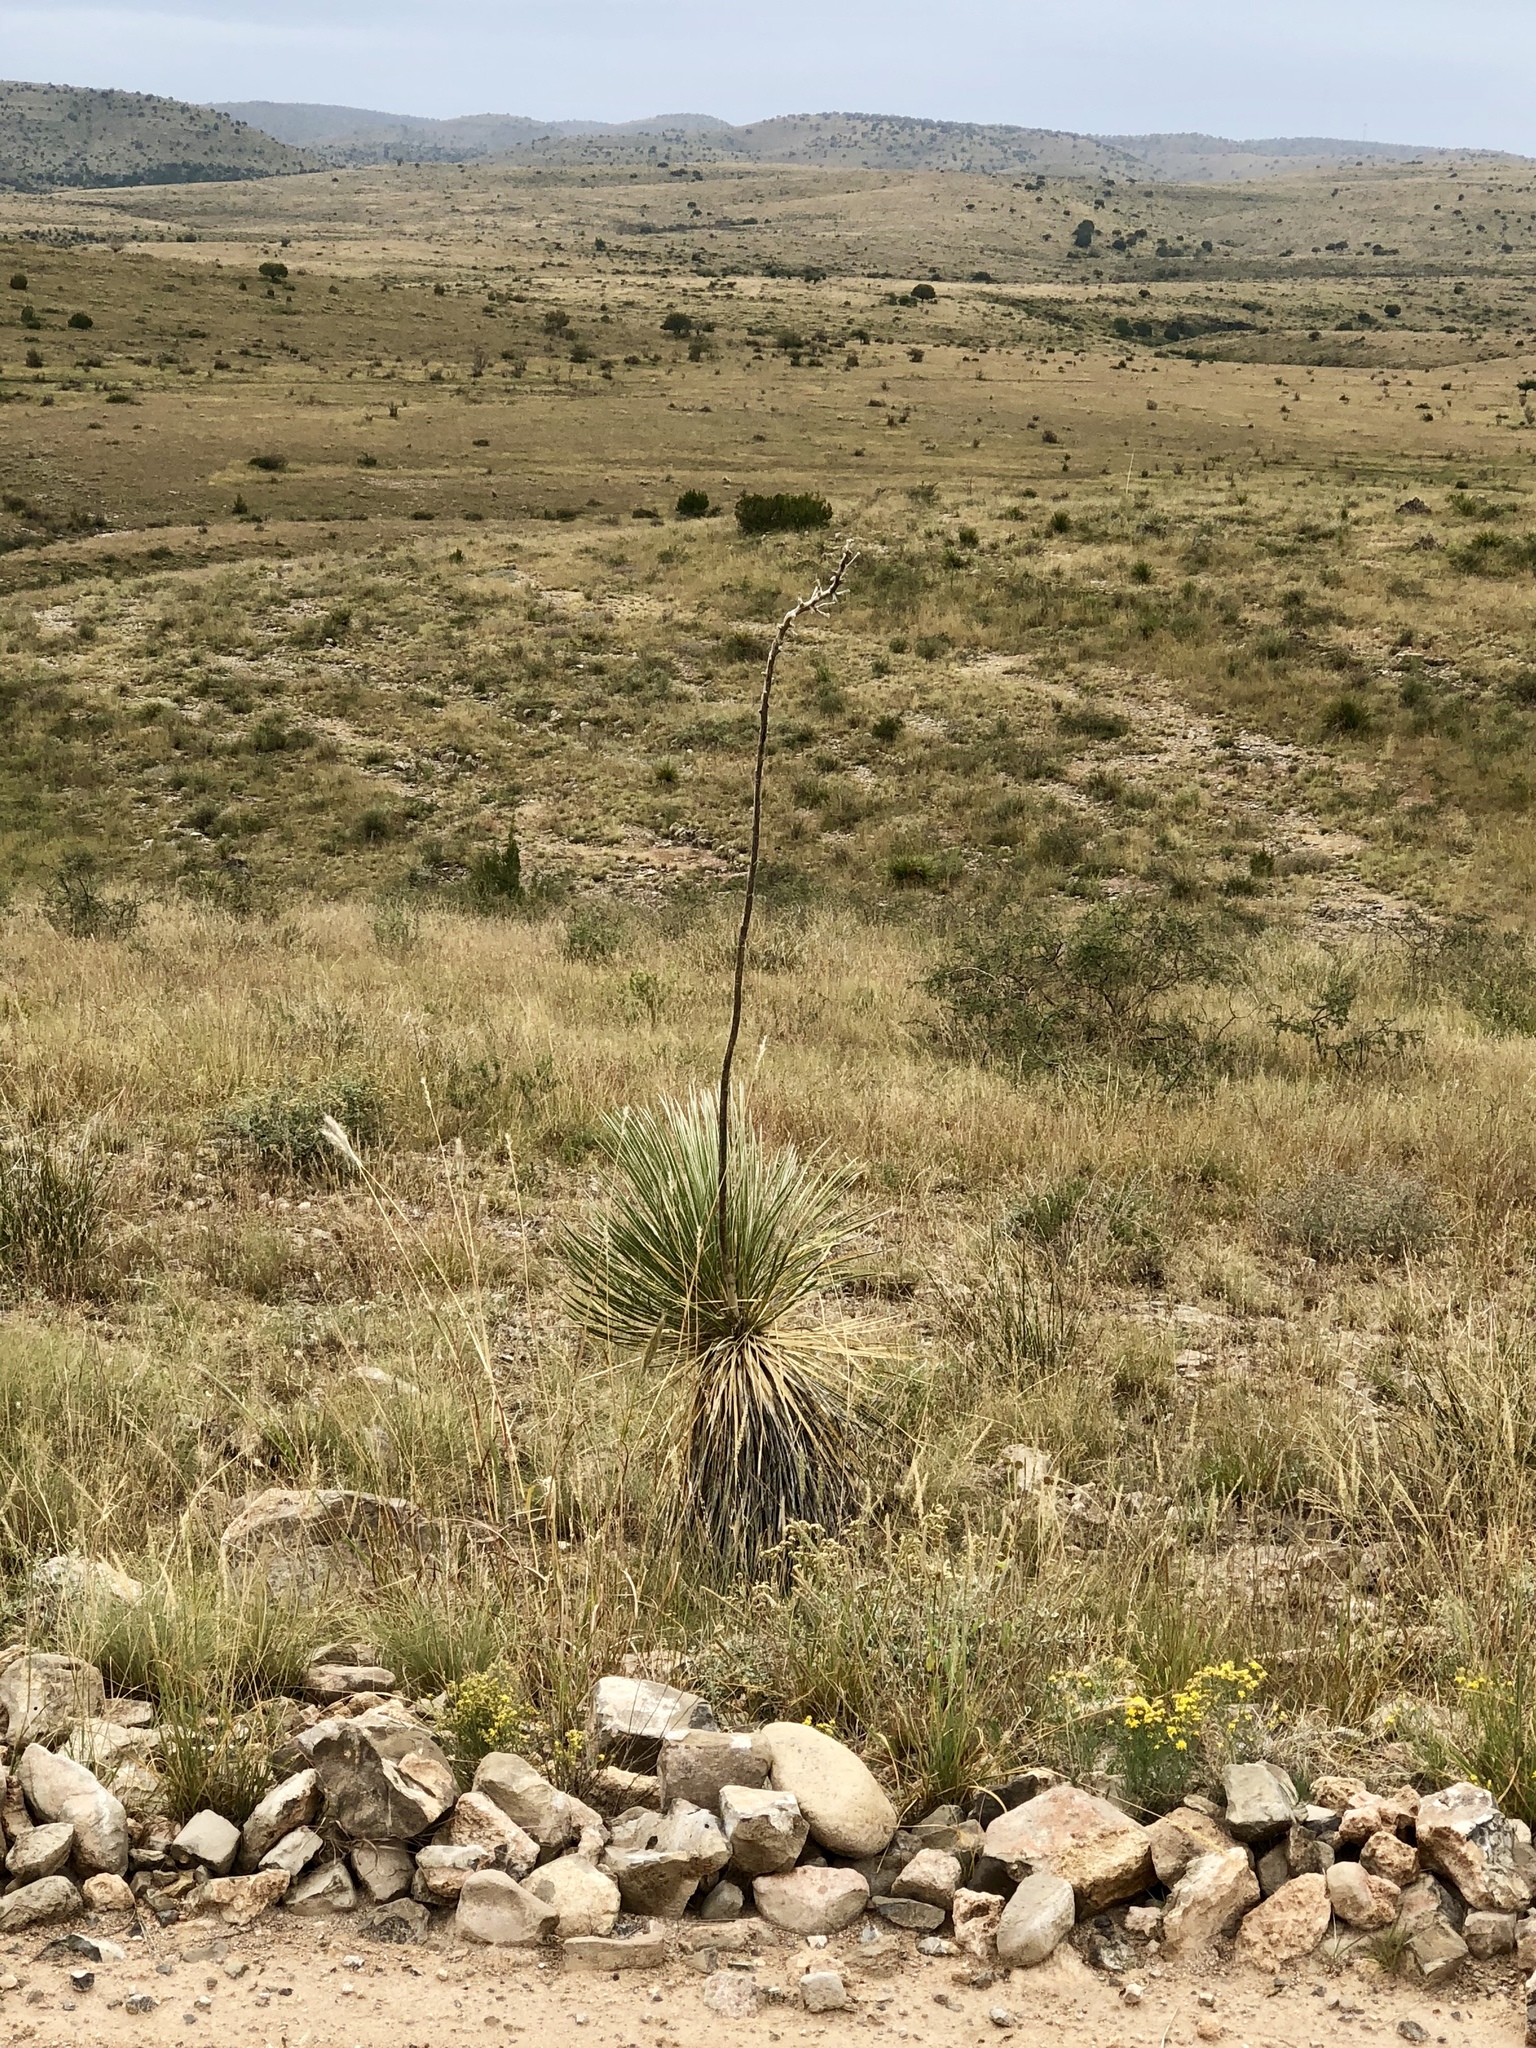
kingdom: Plantae
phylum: Tracheophyta
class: Liliopsida
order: Asparagales
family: Asparagaceae
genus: Yucca
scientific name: Yucca elata
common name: Palmella
